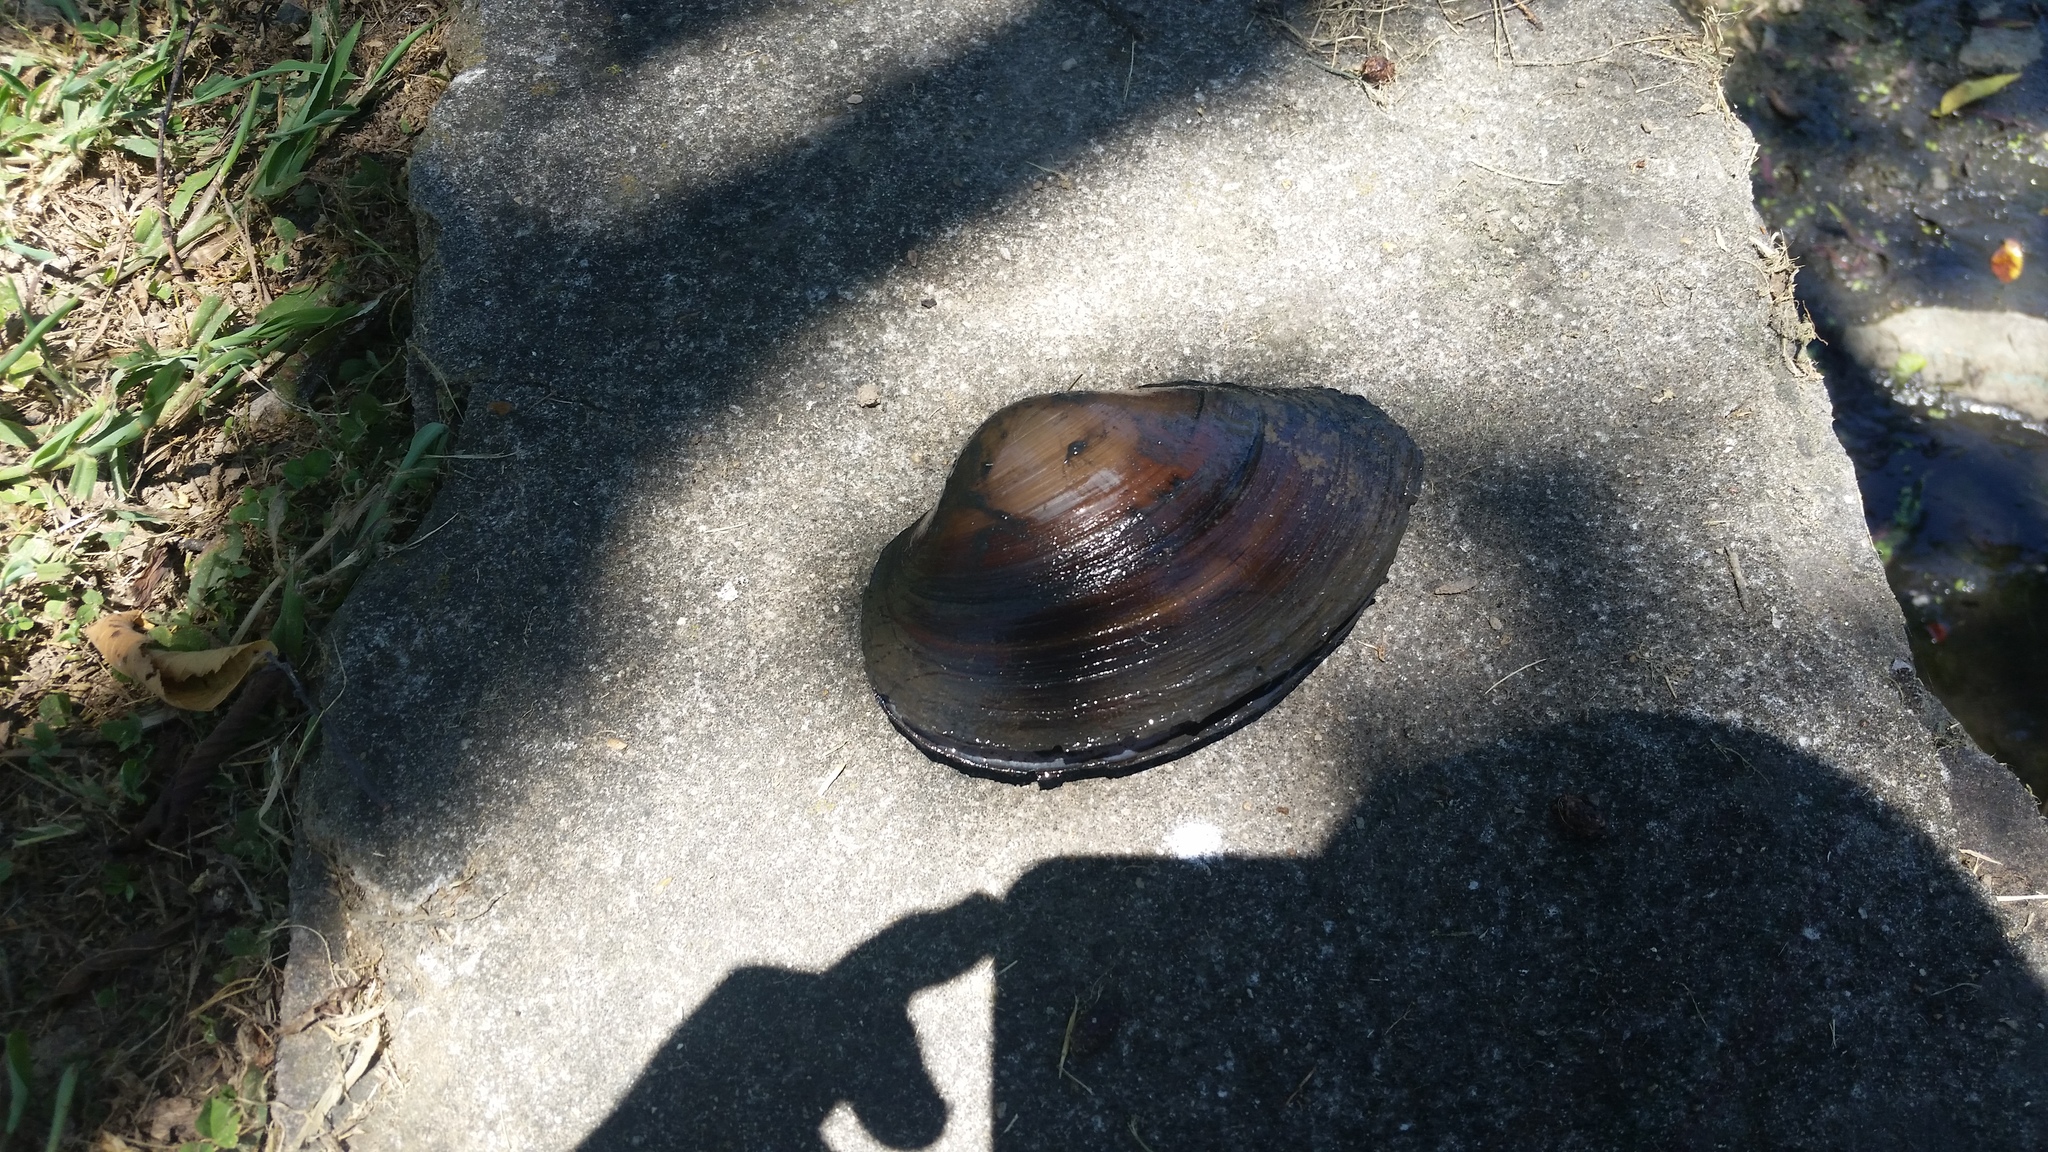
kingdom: Animalia
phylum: Mollusca
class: Bivalvia
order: Unionida
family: Unionidae
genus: Pyganodon
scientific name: Pyganodon grandis
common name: Giant floater
